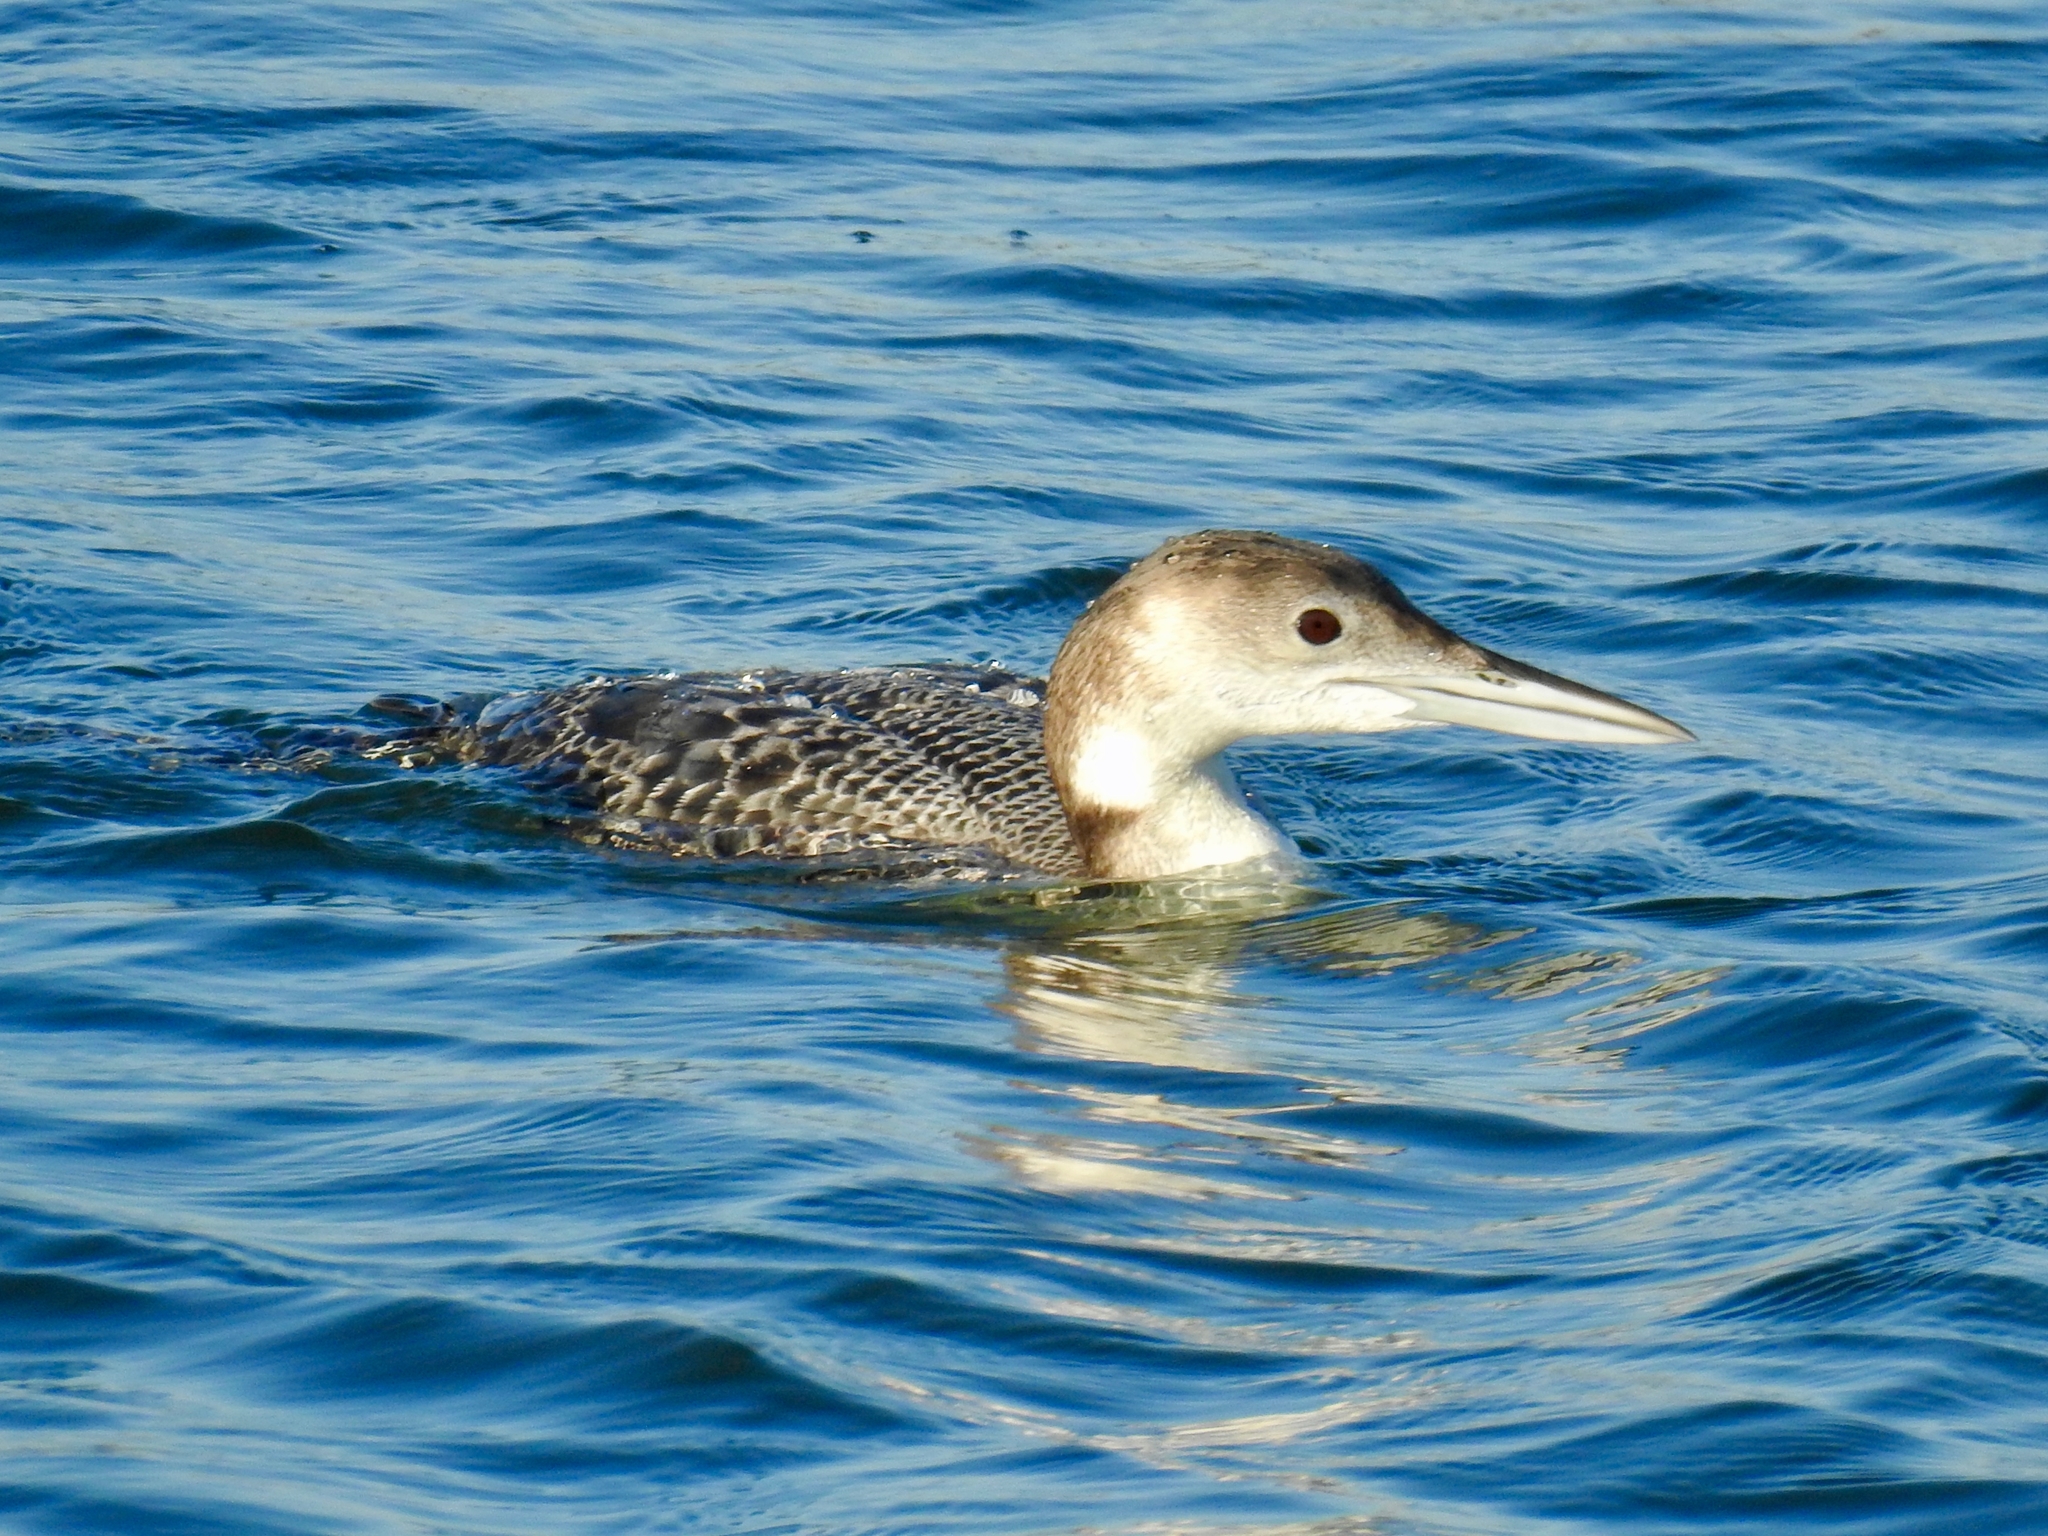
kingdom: Animalia
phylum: Chordata
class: Aves
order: Gaviiformes
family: Gaviidae
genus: Gavia
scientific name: Gavia immer
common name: Common loon
